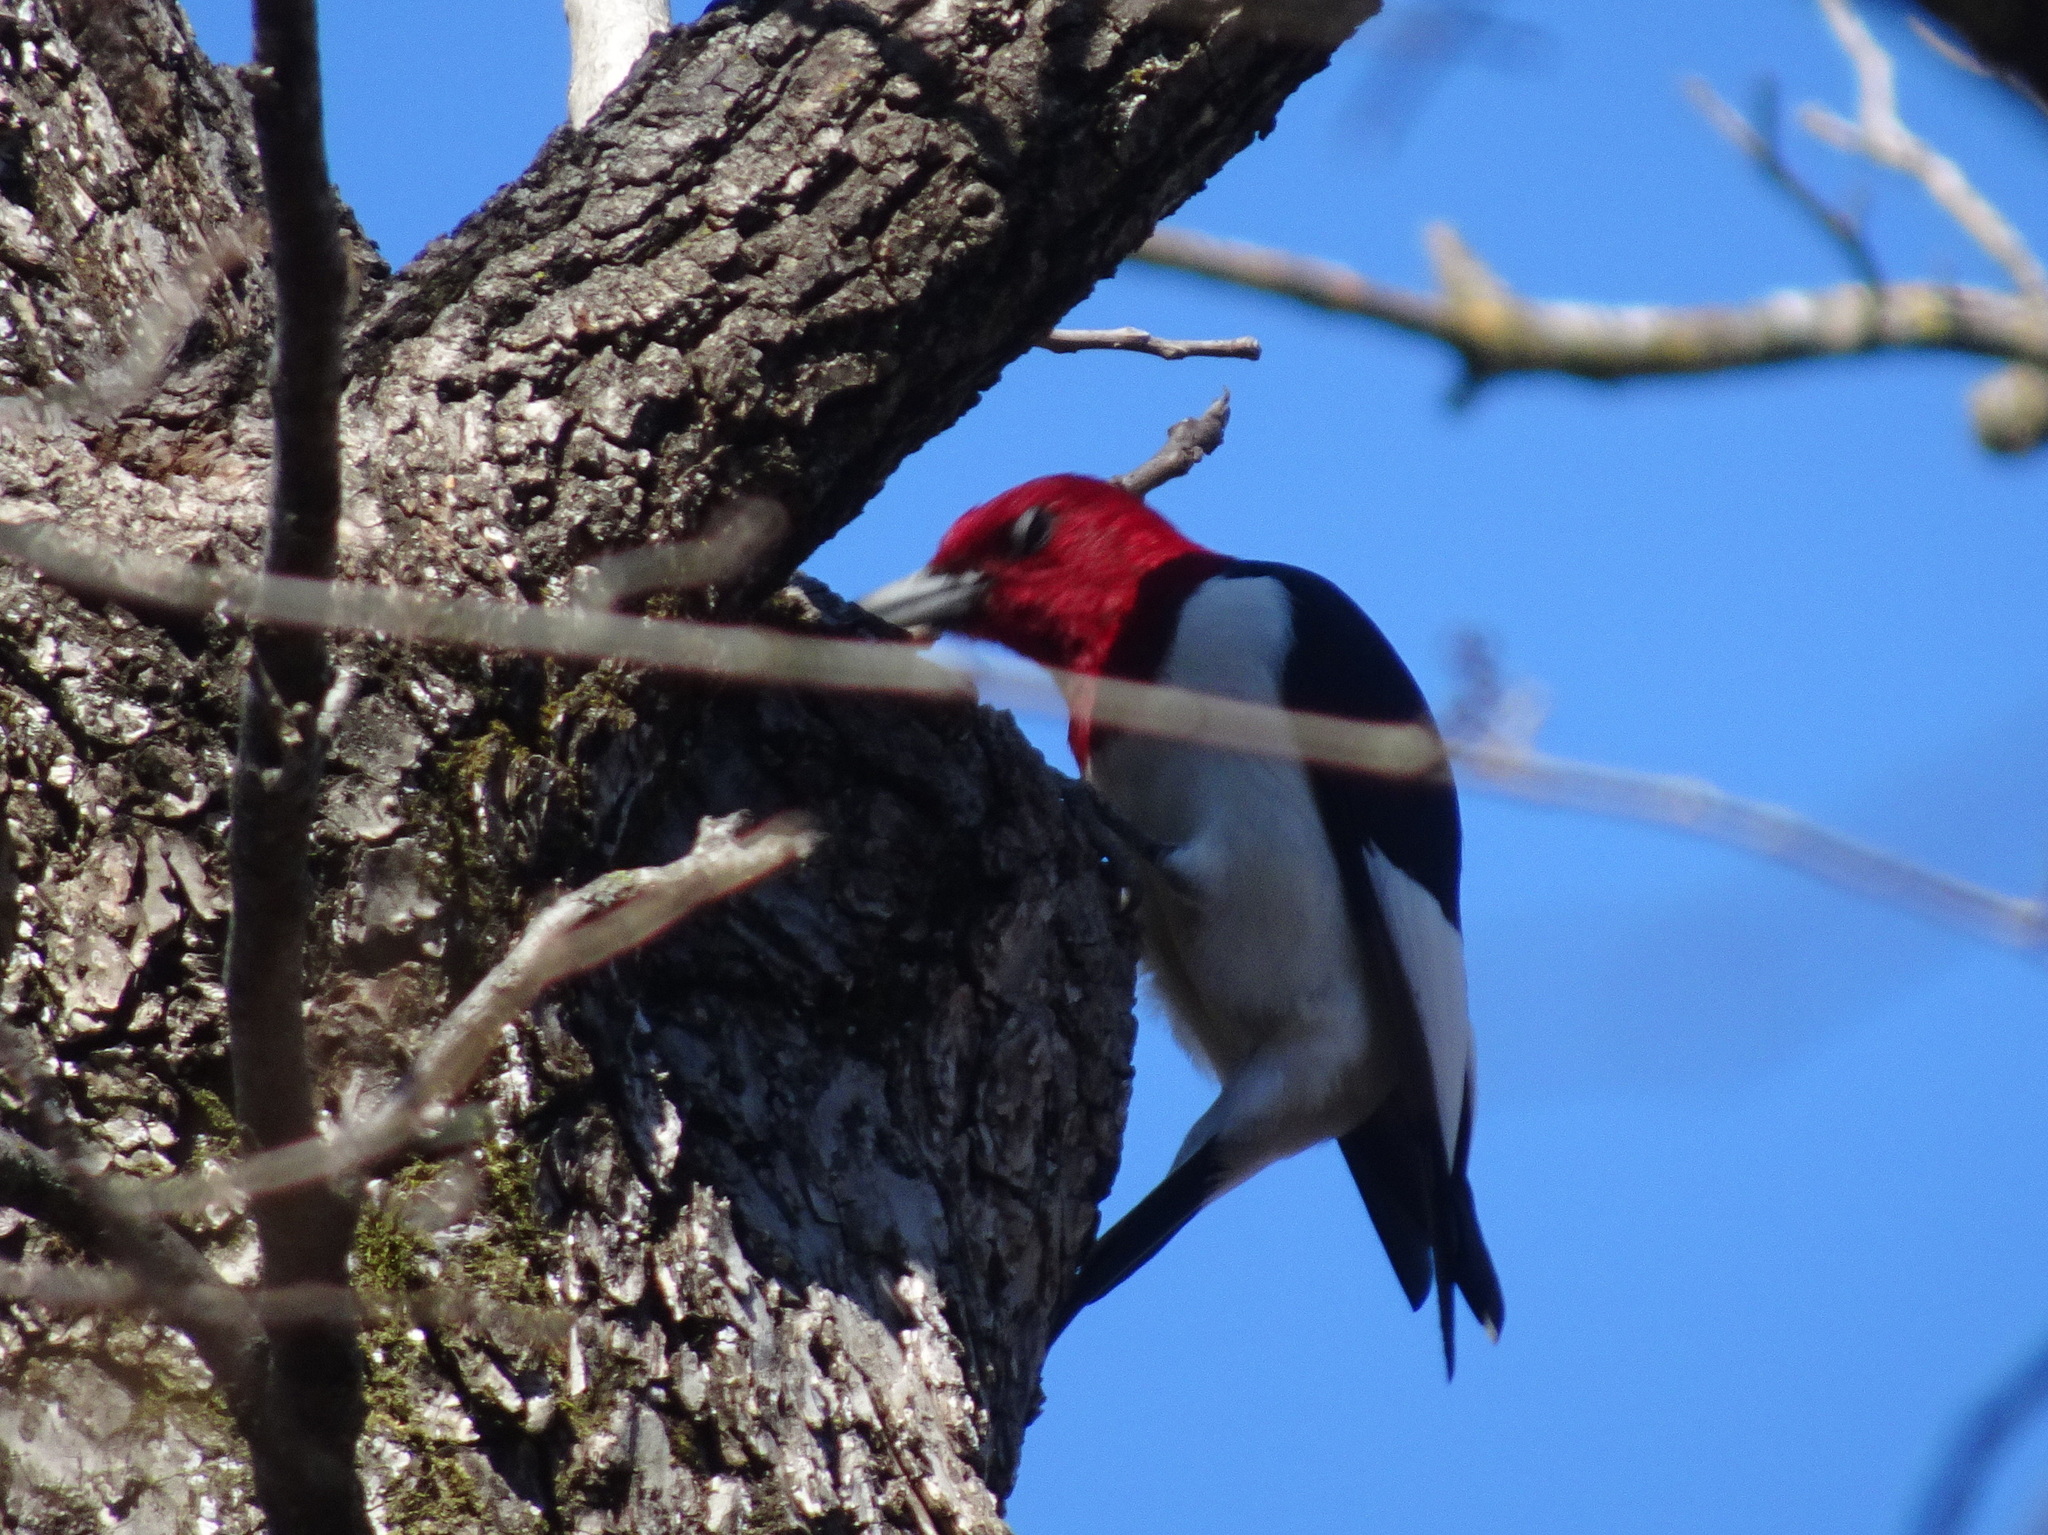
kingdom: Animalia
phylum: Chordata
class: Aves
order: Piciformes
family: Picidae
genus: Melanerpes
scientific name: Melanerpes erythrocephalus
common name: Red-headed woodpecker
